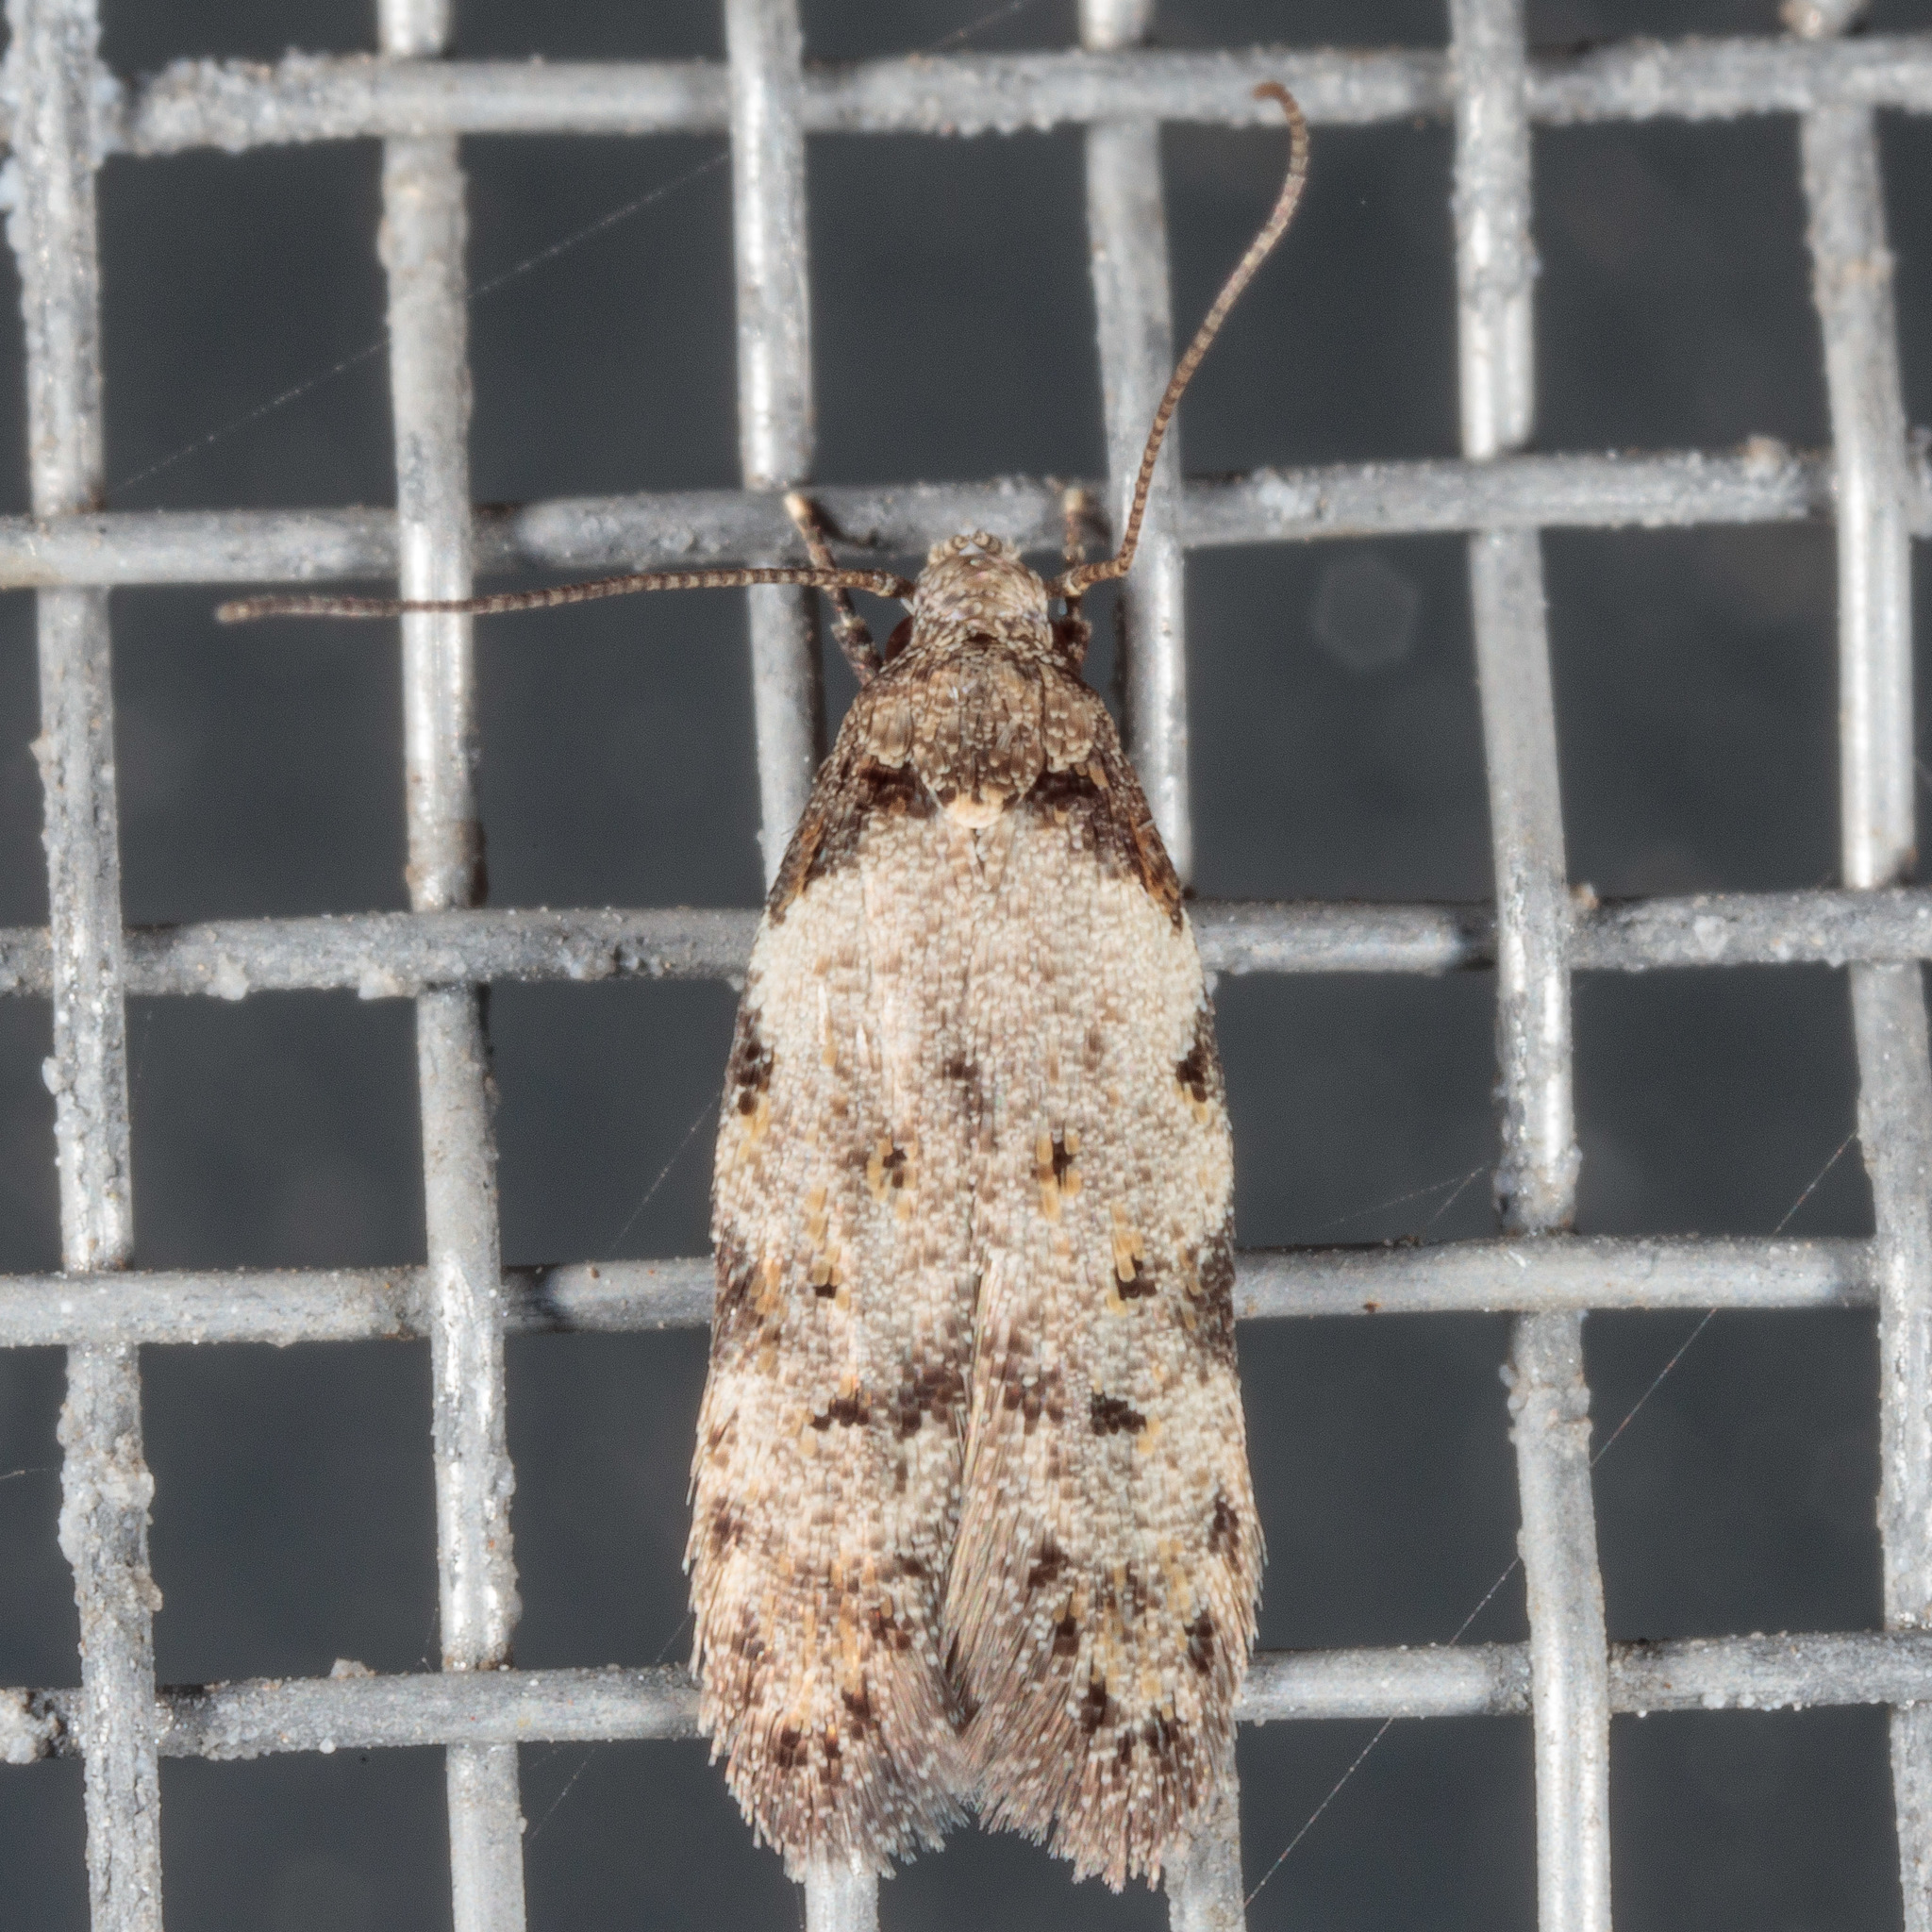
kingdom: Animalia
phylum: Arthropoda
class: Insecta
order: Lepidoptera
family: Autostichidae
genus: Taygete
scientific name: Taygete attributella
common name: Triangle-marked twirler moth
